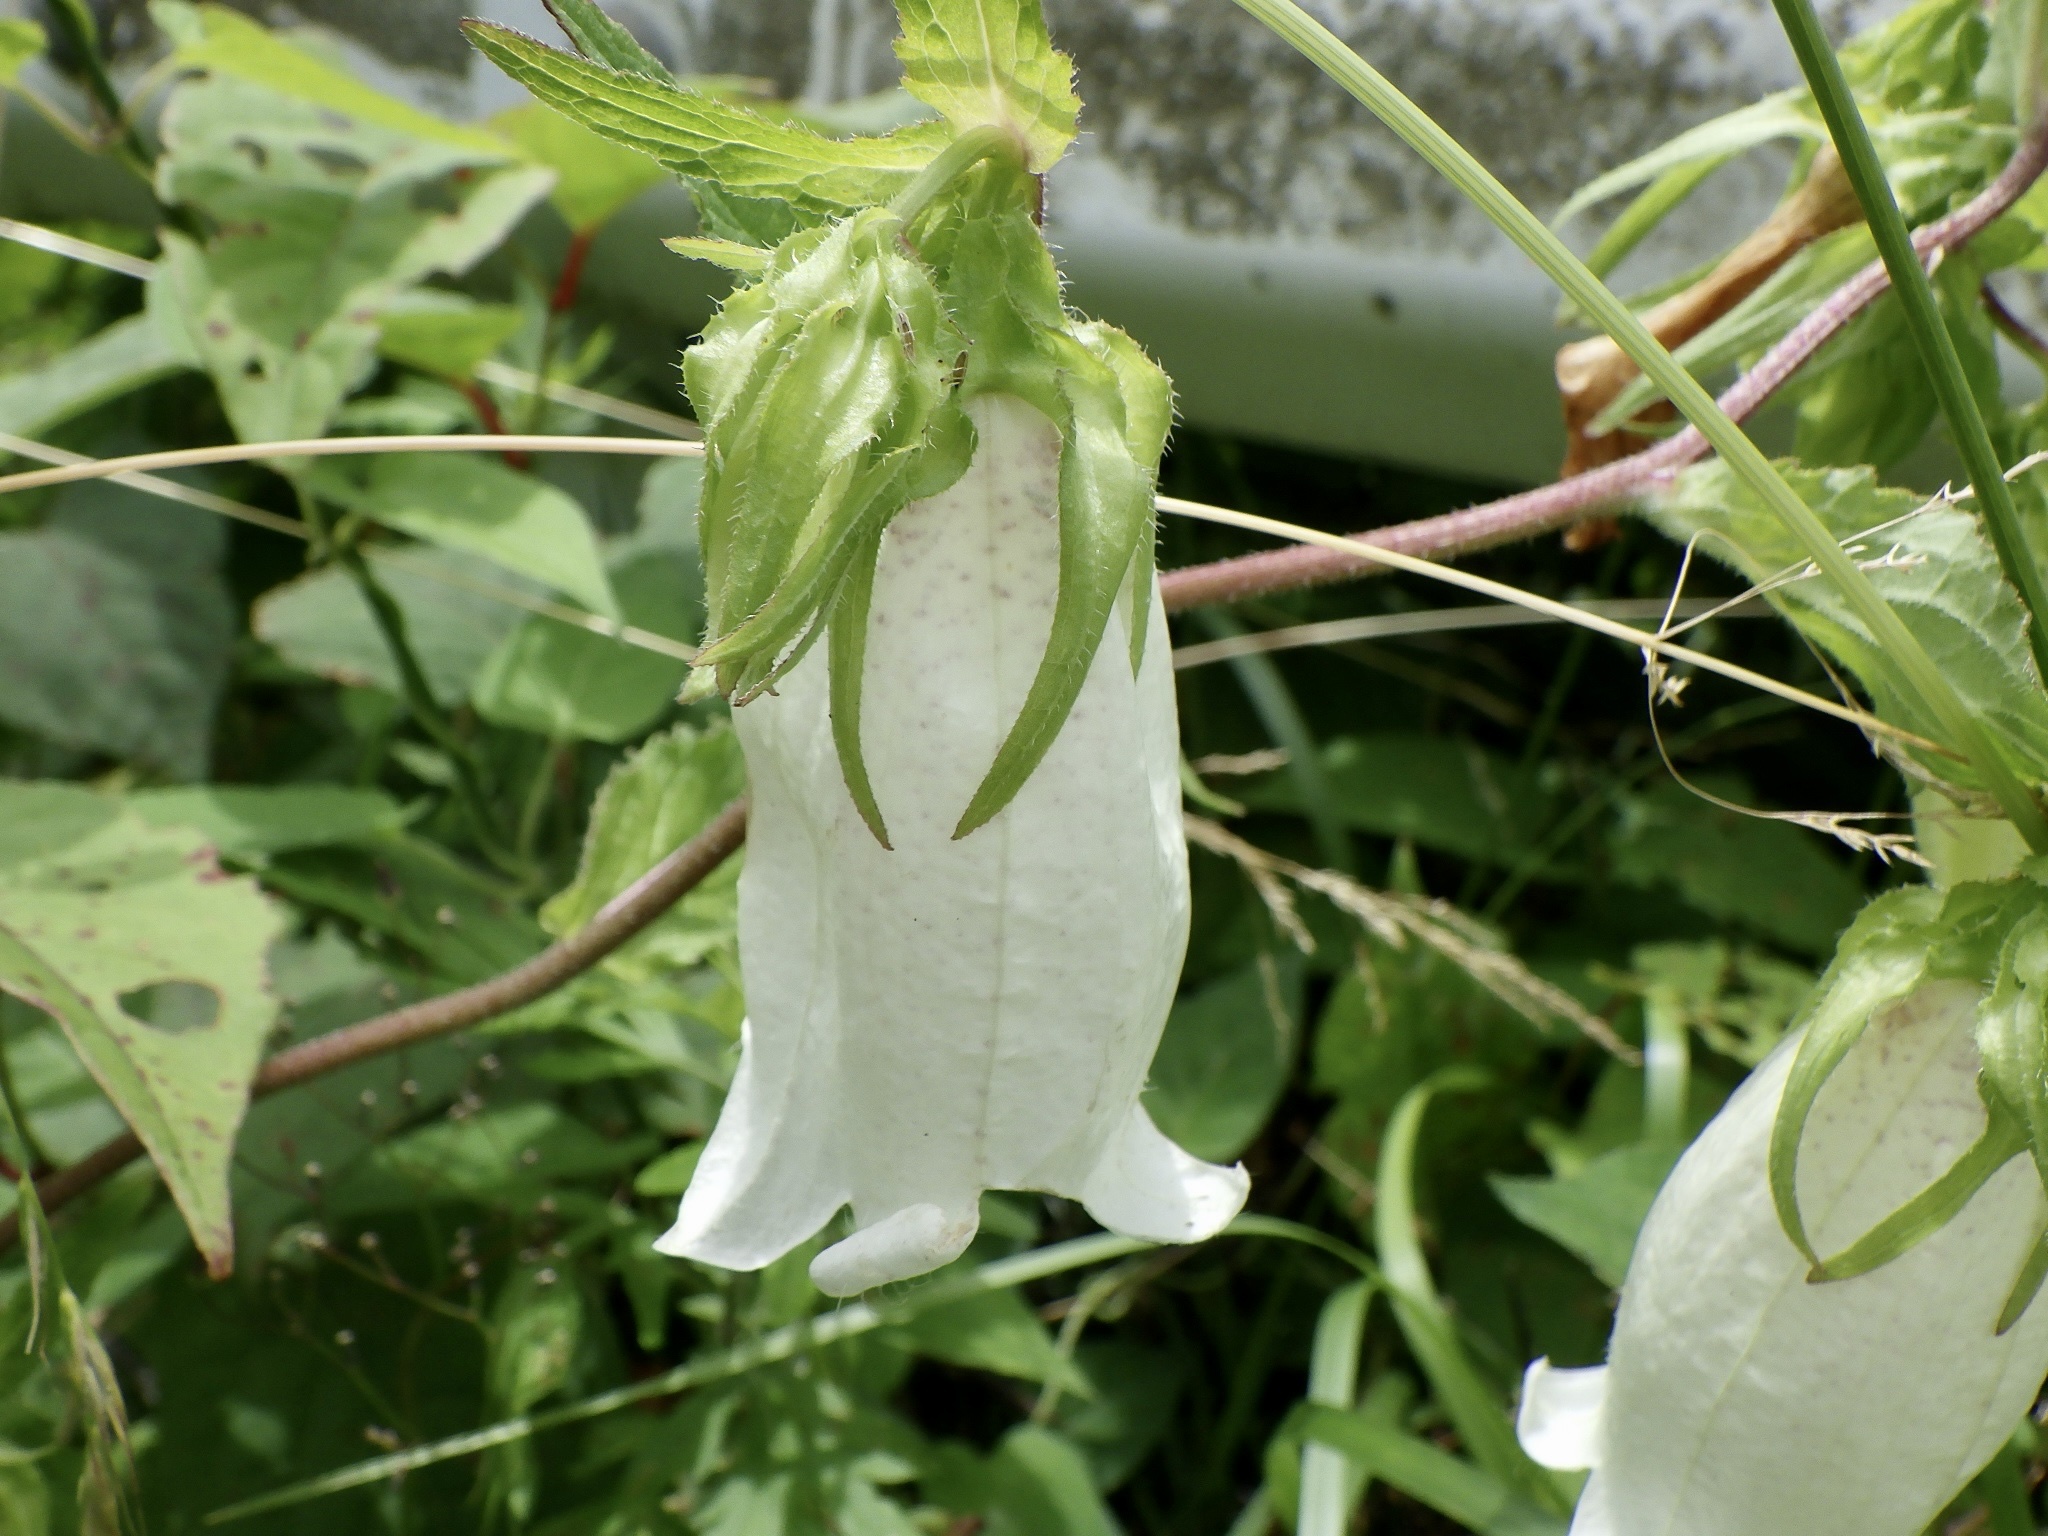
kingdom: Plantae
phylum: Tracheophyta
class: Magnoliopsida
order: Asterales
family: Campanulaceae
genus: Campanula
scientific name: Campanula punctata
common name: Spotted bellflower
